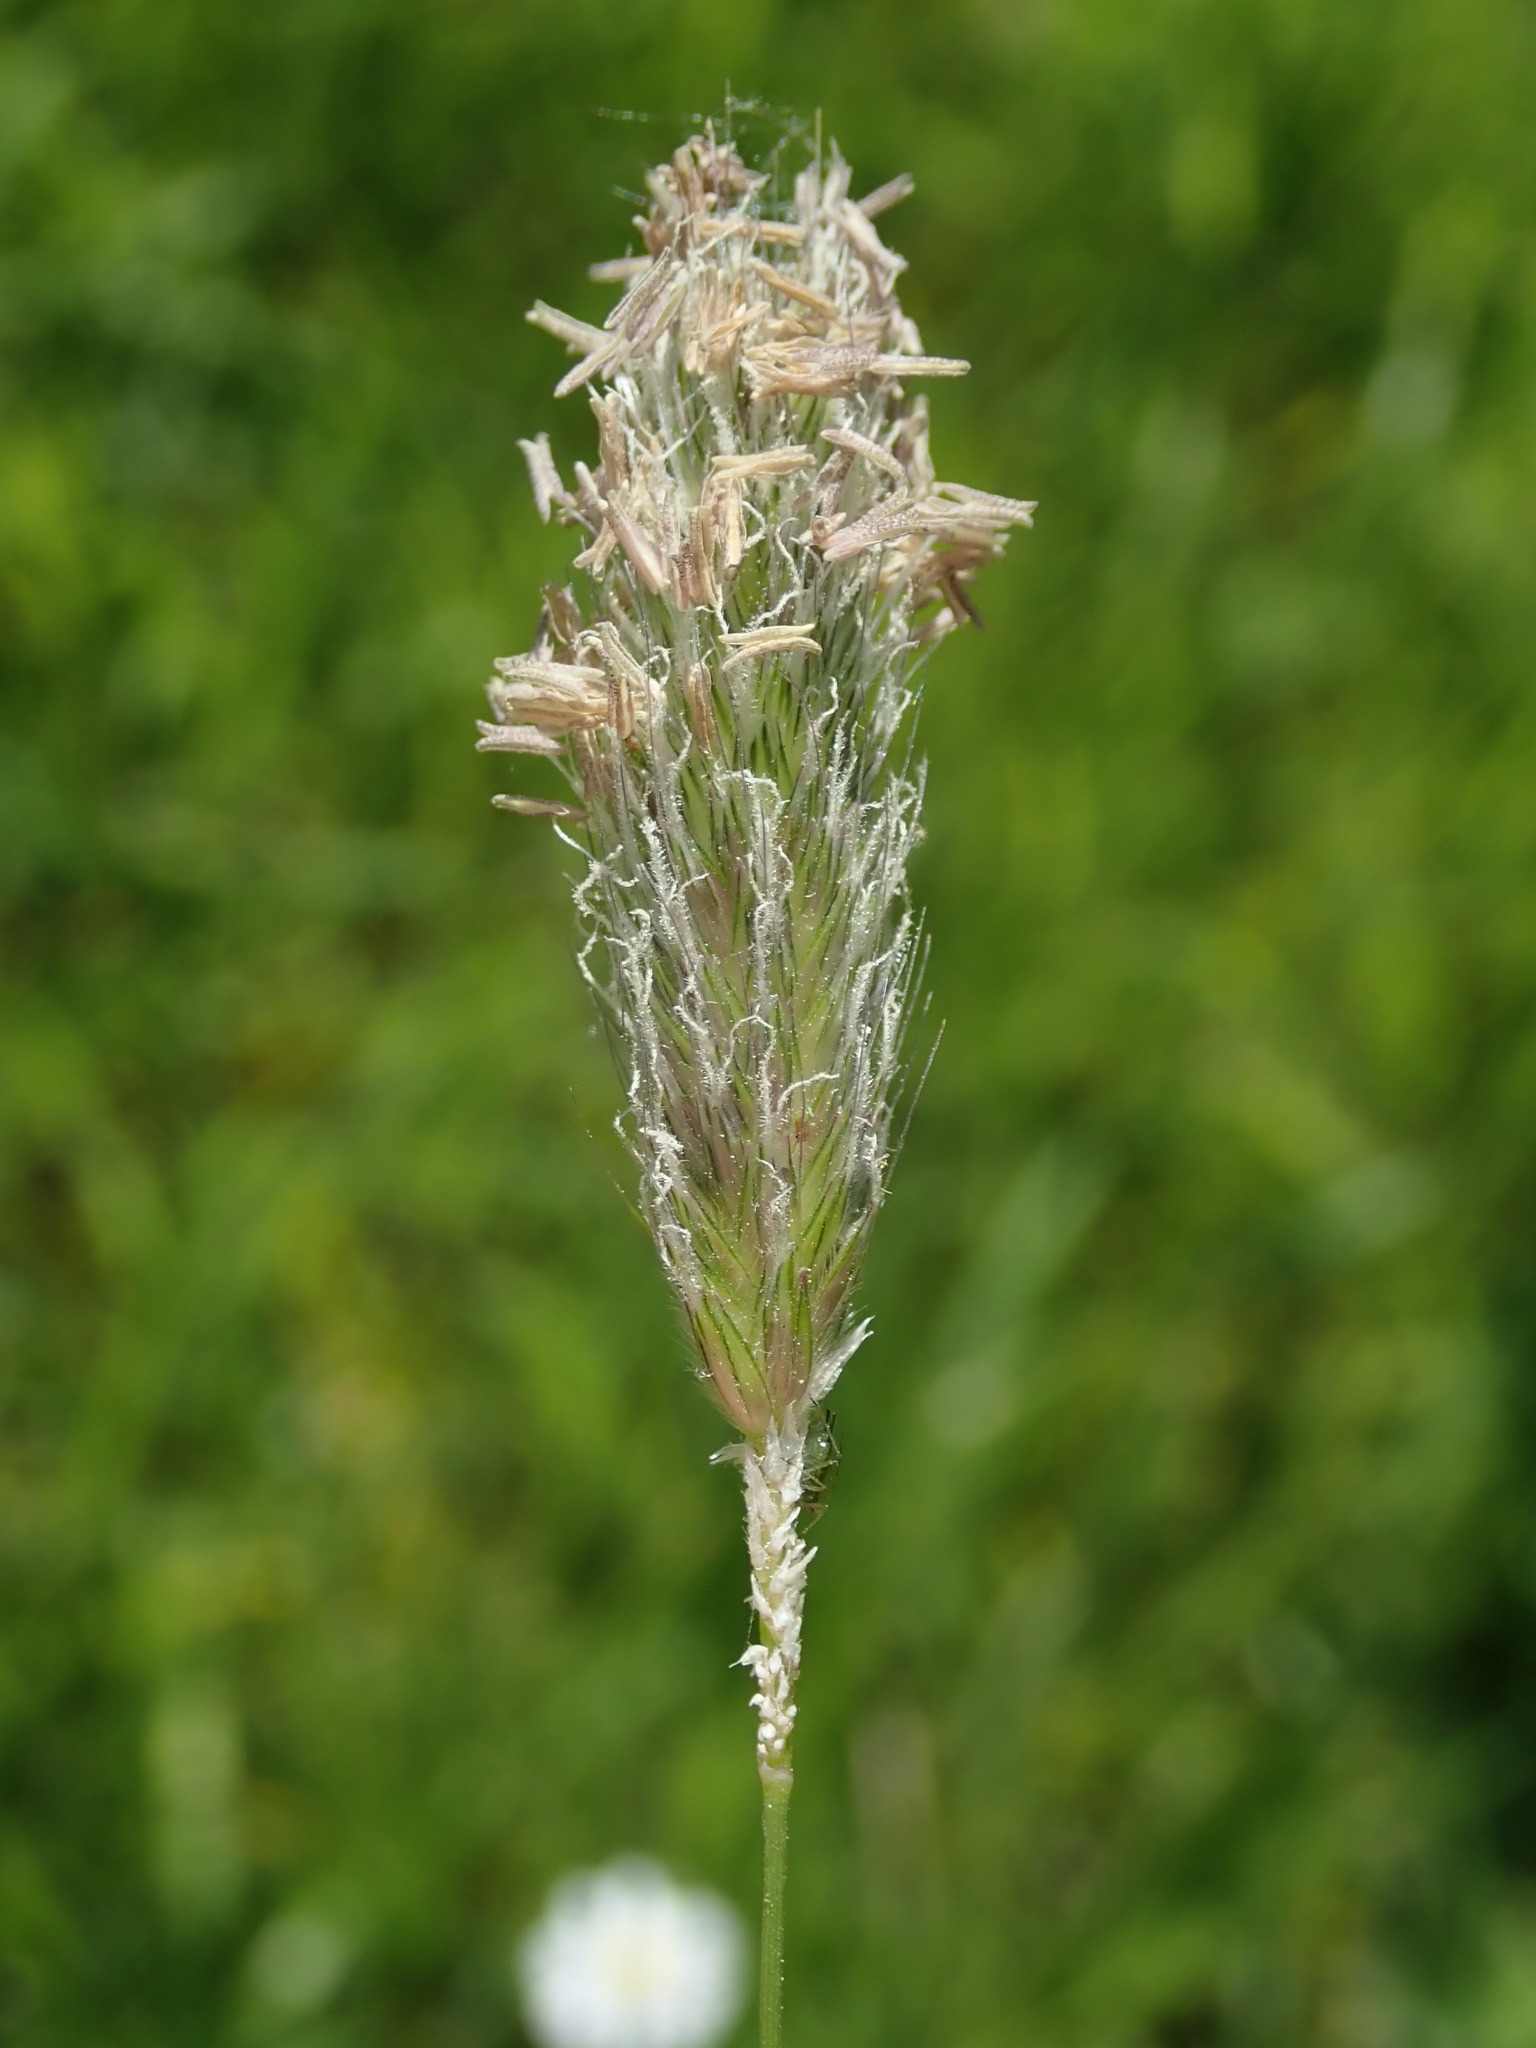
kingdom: Plantae
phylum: Tracheophyta
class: Liliopsida
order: Poales
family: Poaceae
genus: Alopecurus
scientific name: Alopecurus pratensis
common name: Meadow foxtail
